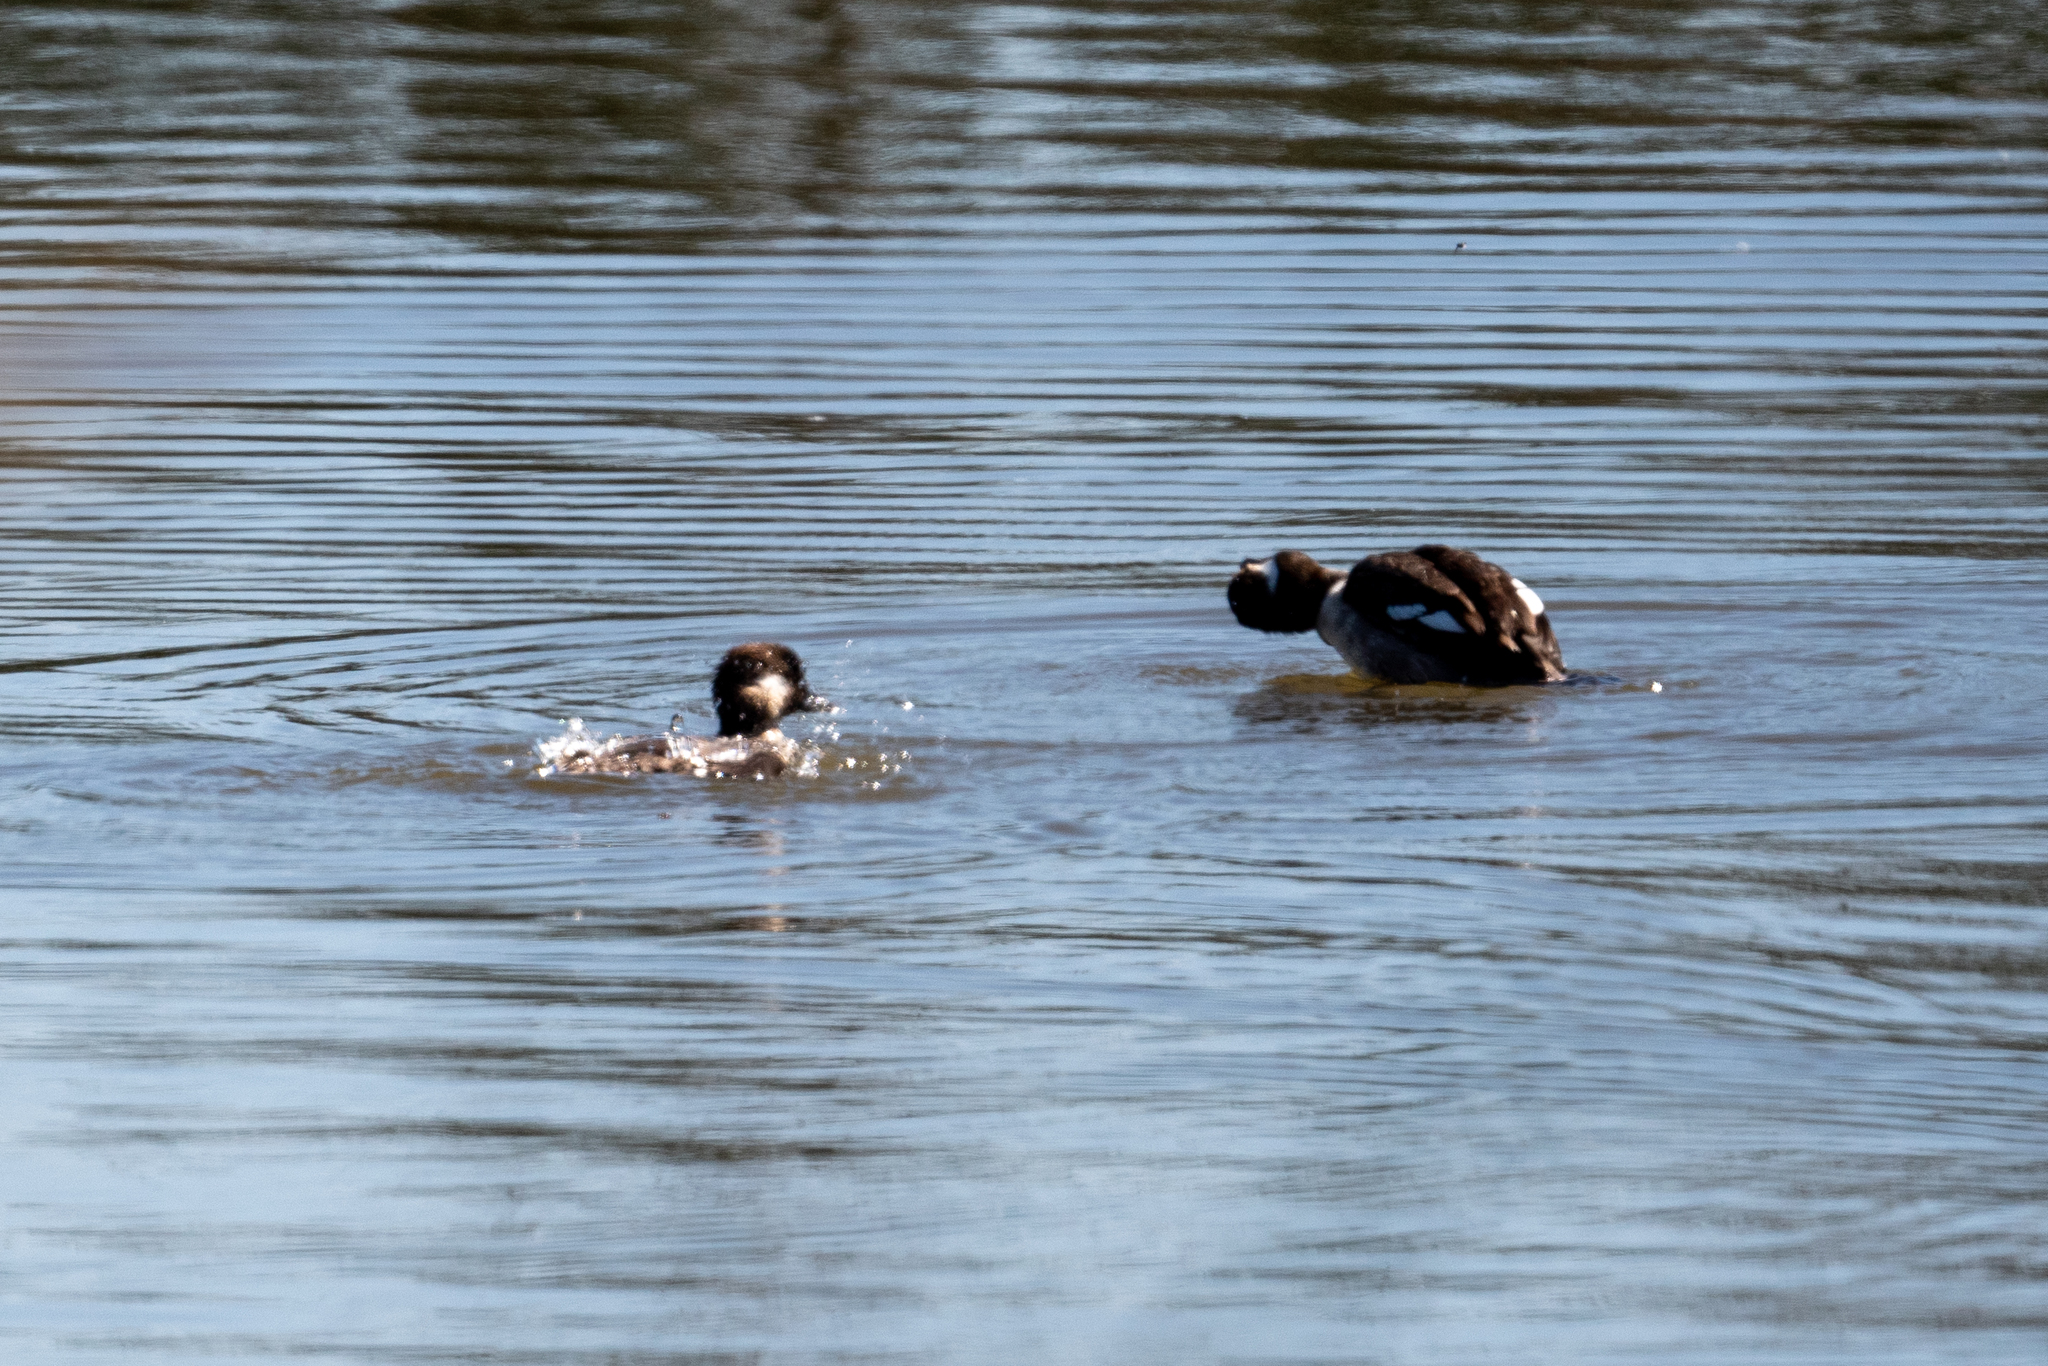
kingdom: Animalia
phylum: Chordata
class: Aves
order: Anseriformes
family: Anatidae
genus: Bucephala
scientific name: Bucephala albeola
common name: Bufflehead
